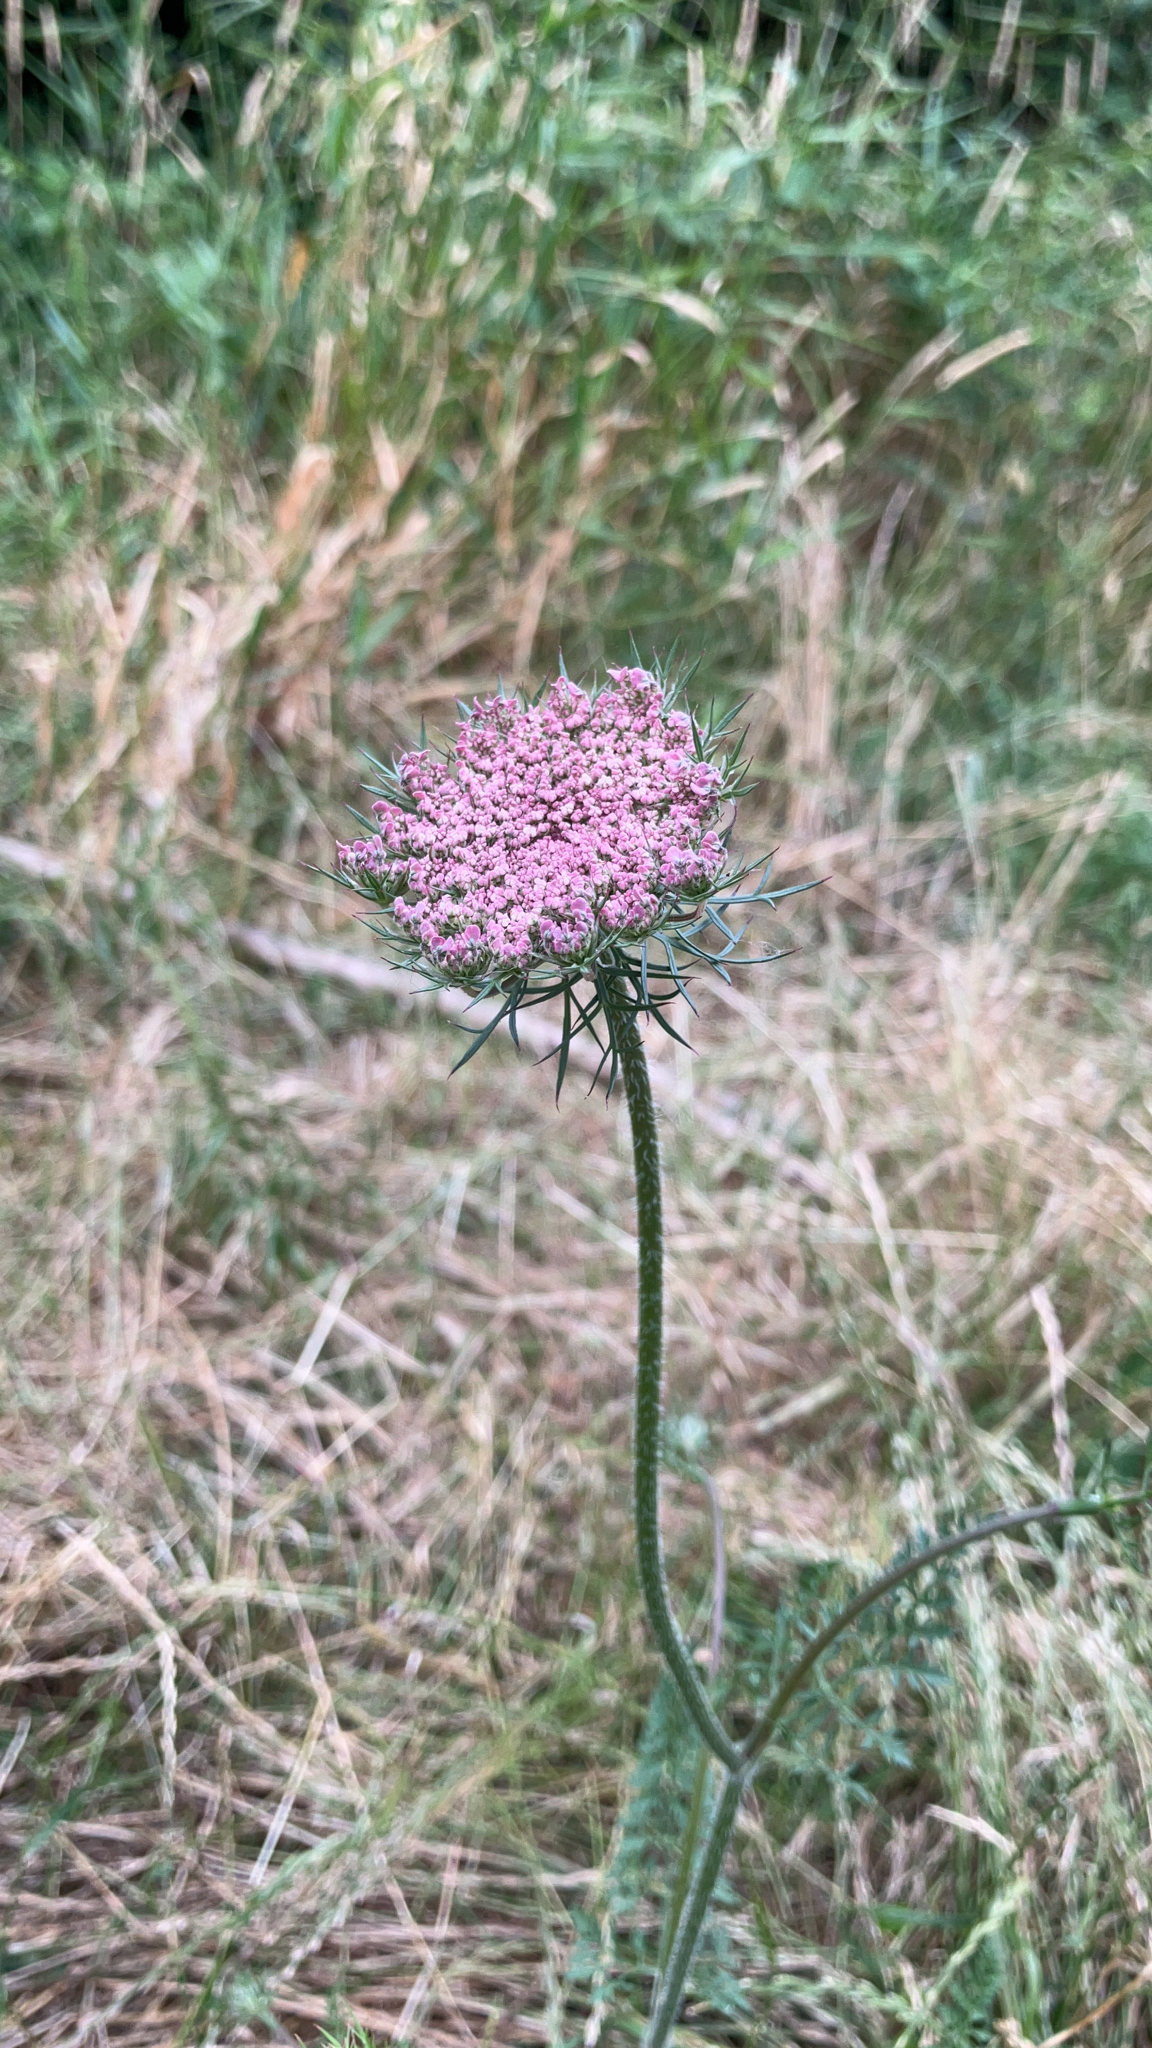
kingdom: Plantae
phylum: Tracheophyta
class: Magnoliopsida
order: Apiales
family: Apiaceae
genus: Daucus
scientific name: Daucus carota
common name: Wild carrot
